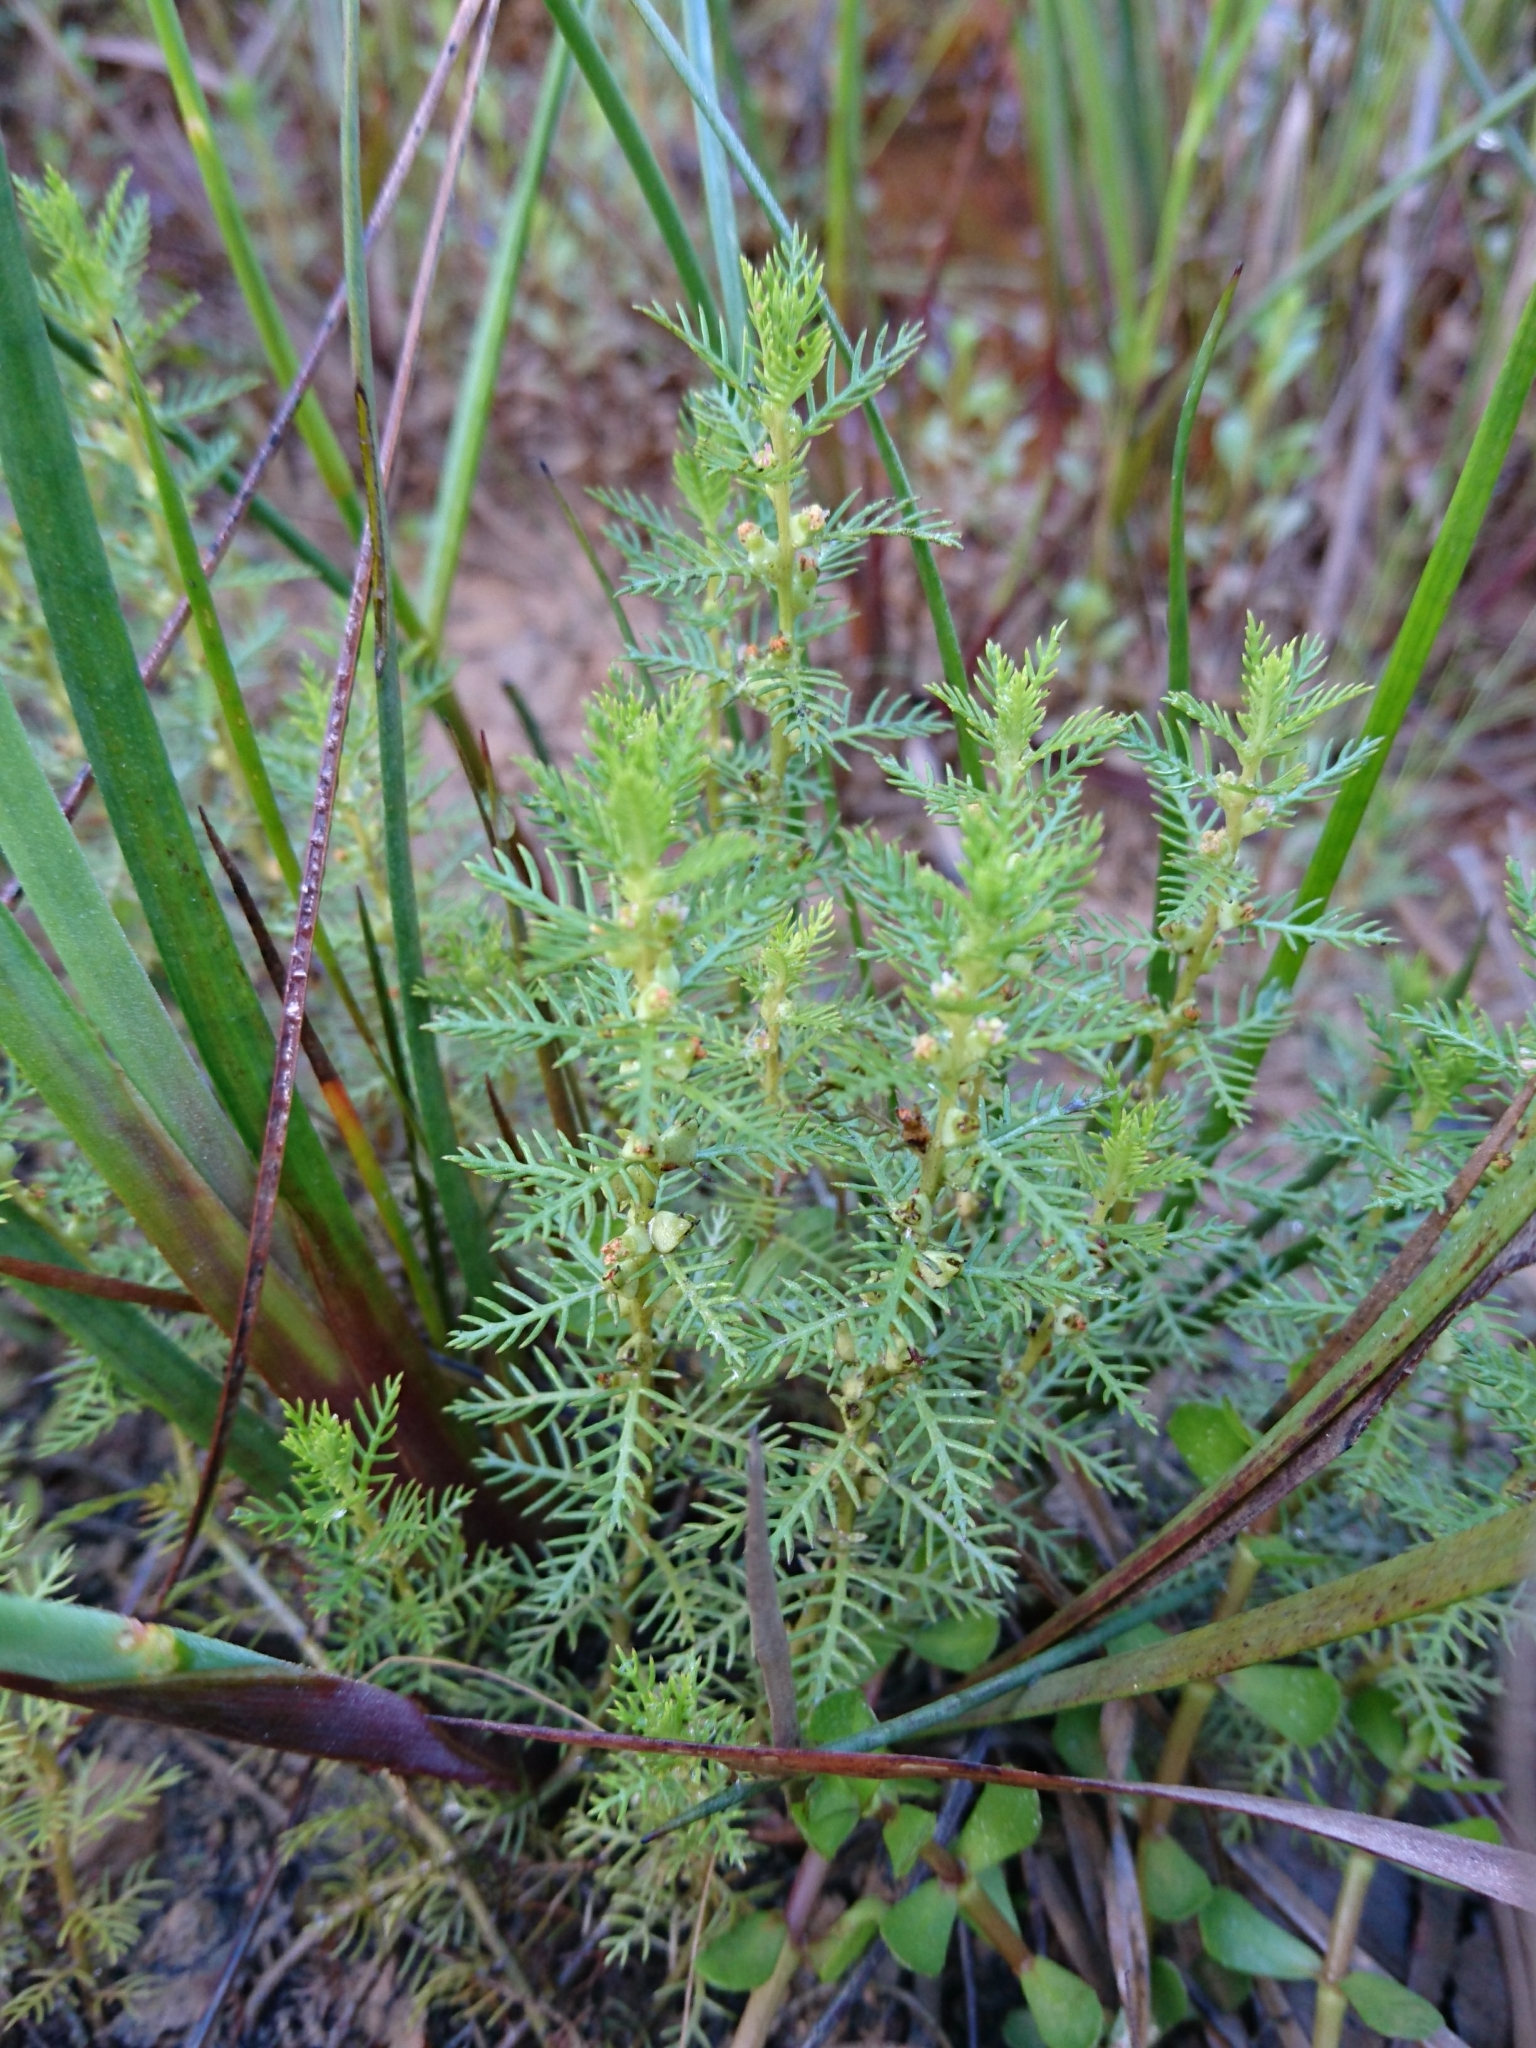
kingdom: Plantae
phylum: Tracheophyta
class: Magnoliopsida
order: Saxifragales
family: Haloragaceae
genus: Proserpinaca
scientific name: Proserpinaca pectinata
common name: Comb-leaved mermaidweed
